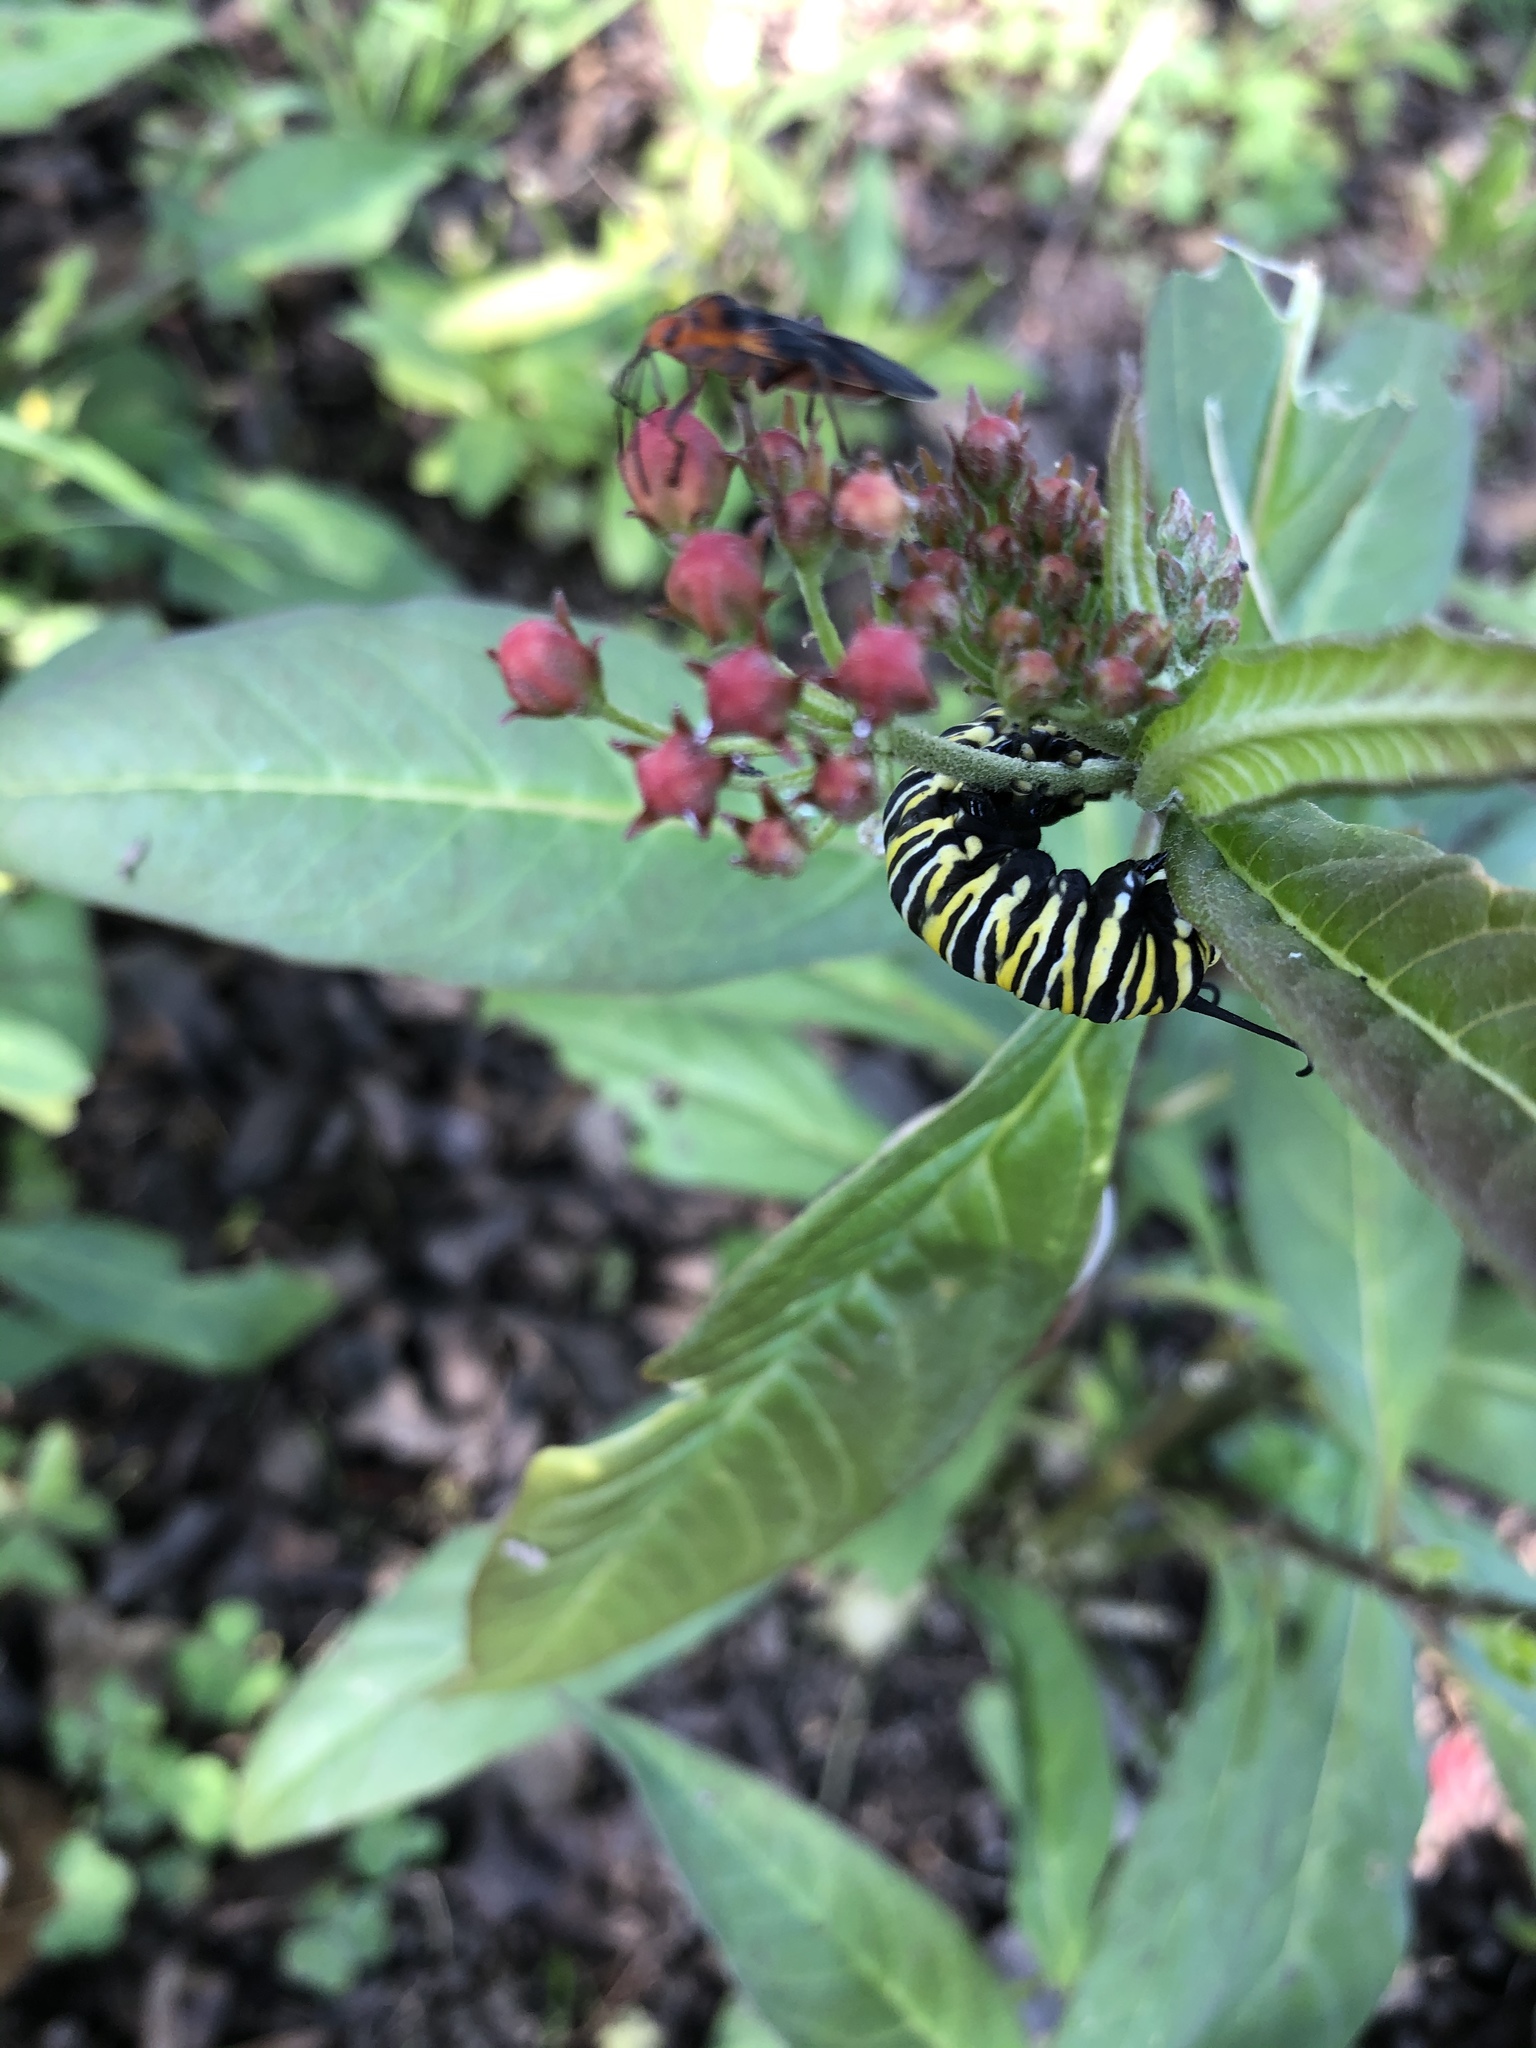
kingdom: Animalia
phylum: Arthropoda
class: Insecta
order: Lepidoptera
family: Nymphalidae
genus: Danaus
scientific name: Danaus plexippus
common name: Monarch
